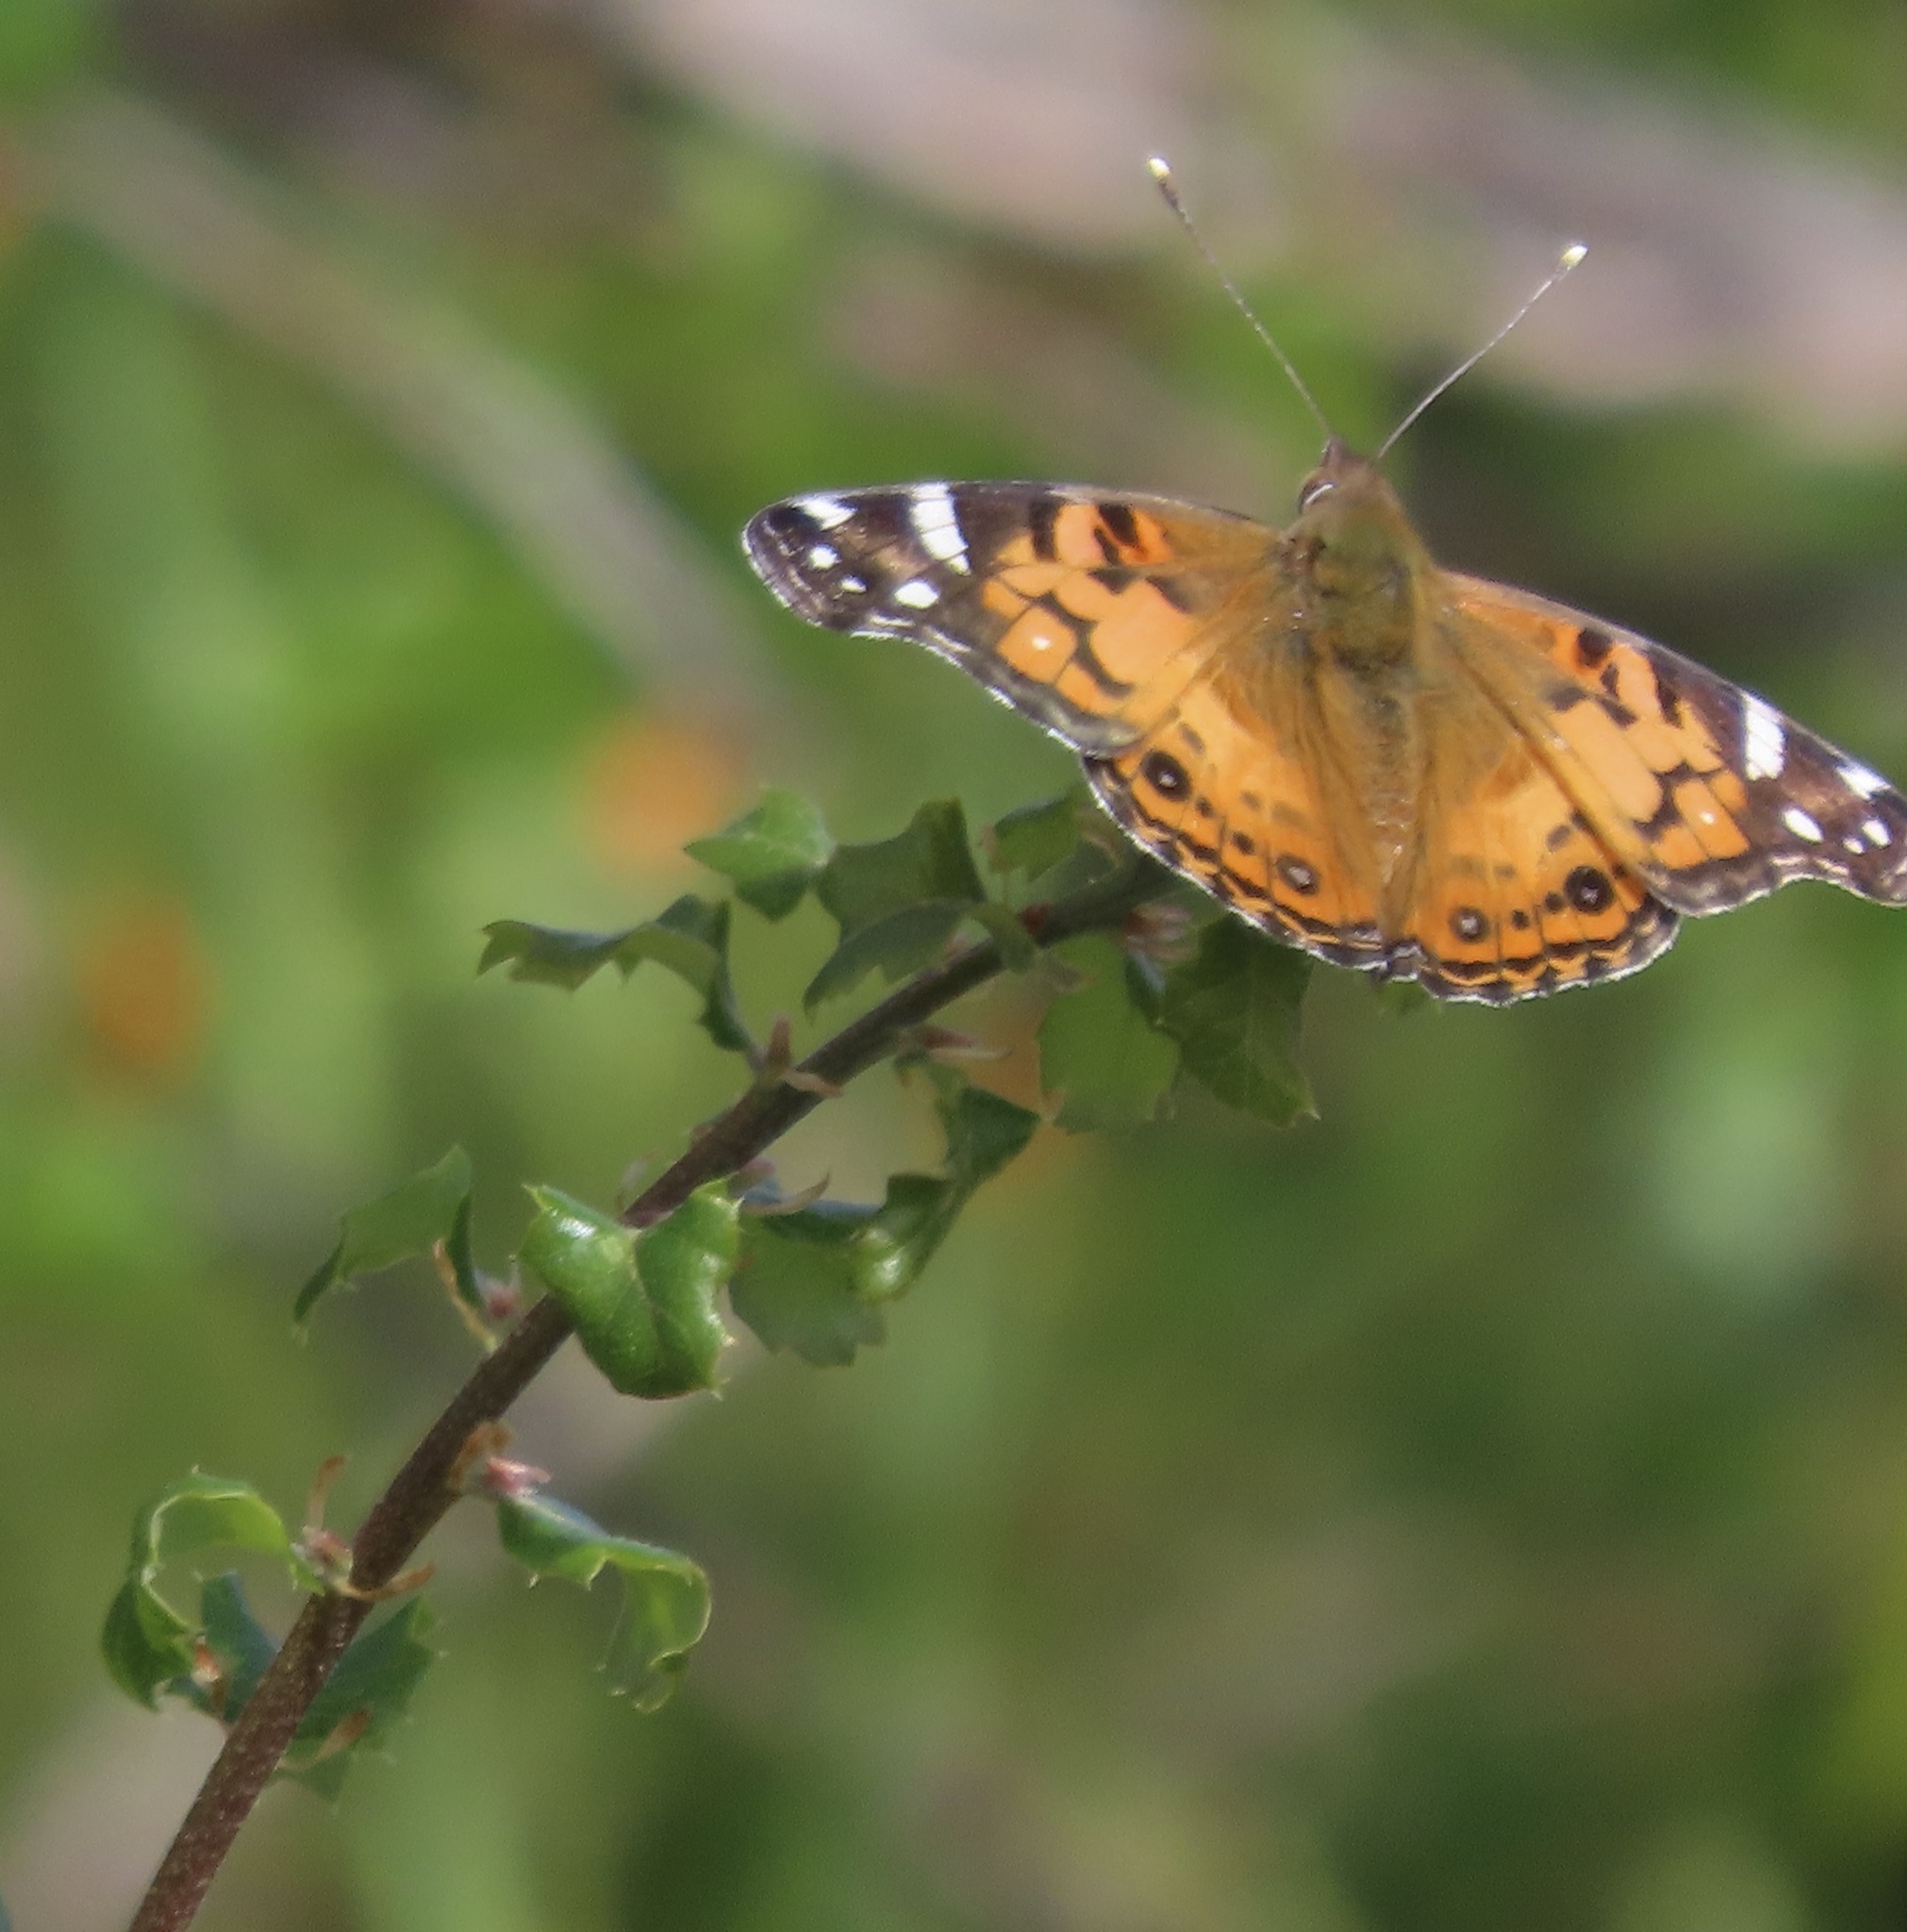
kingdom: Animalia
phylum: Arthropoda
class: Insecta
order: Lepidoptera
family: Nymphalidae
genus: Vanessa
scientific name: Vanessa virginiensis
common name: American lady
